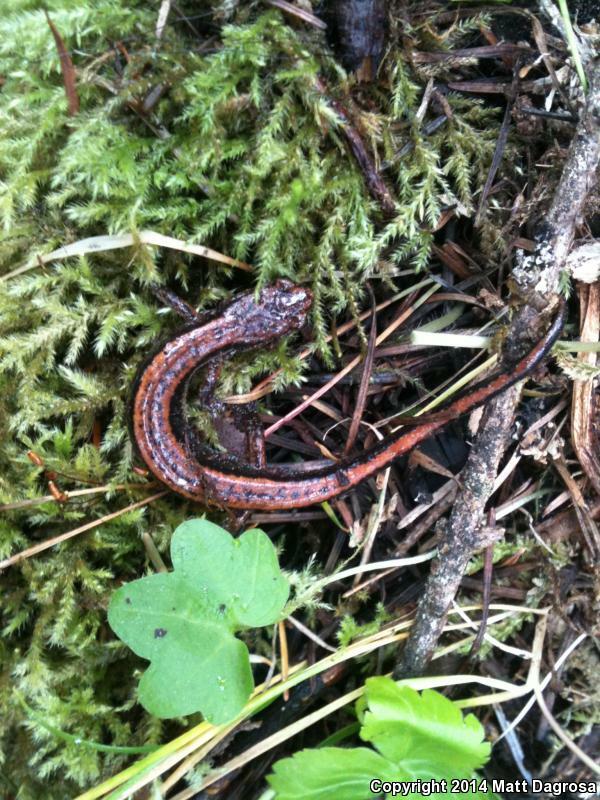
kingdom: Animalia
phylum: Chordata
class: Amphibia
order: Caudata
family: Plethodontidae
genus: Plethodon
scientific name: Plethodon vehiculum
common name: Western red-backed salamander
